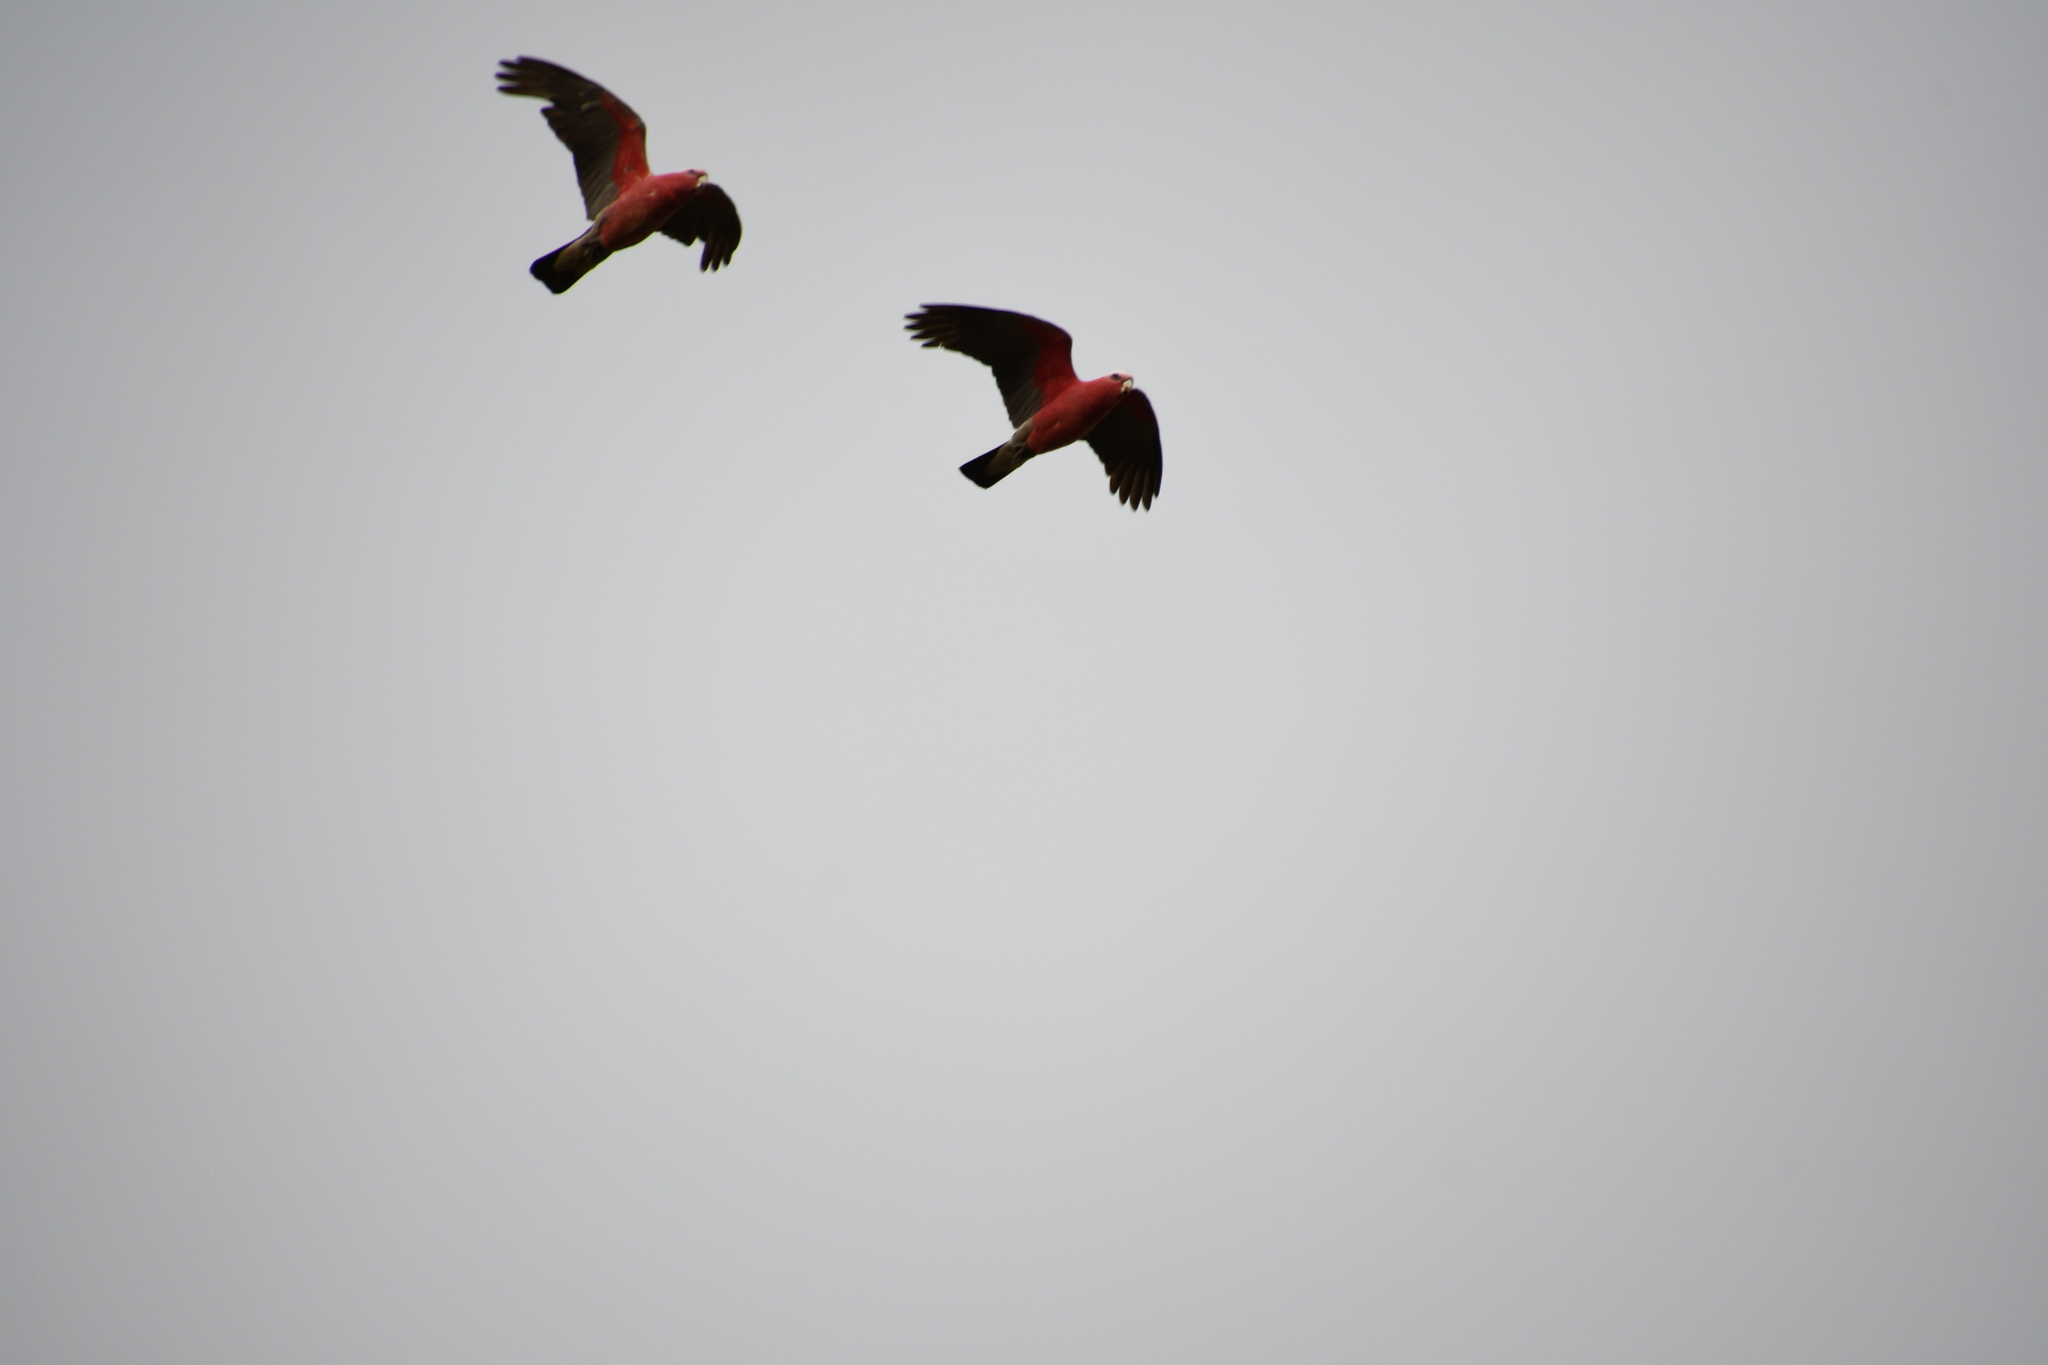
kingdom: Animalia
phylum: Chordata
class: Aves
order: Psittaciformes
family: Psittacidae
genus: Eolophus
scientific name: Eolophus roseicapilla
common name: Galah
